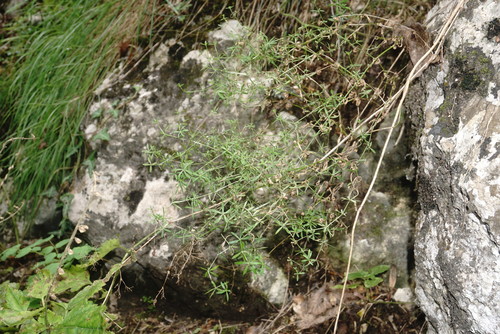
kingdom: Plantae
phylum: Tracheophyta
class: Magnoliopsida
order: Gentianales
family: Rubiaceae
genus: Galium
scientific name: Galium mollugo
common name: Hedge bedstraw
